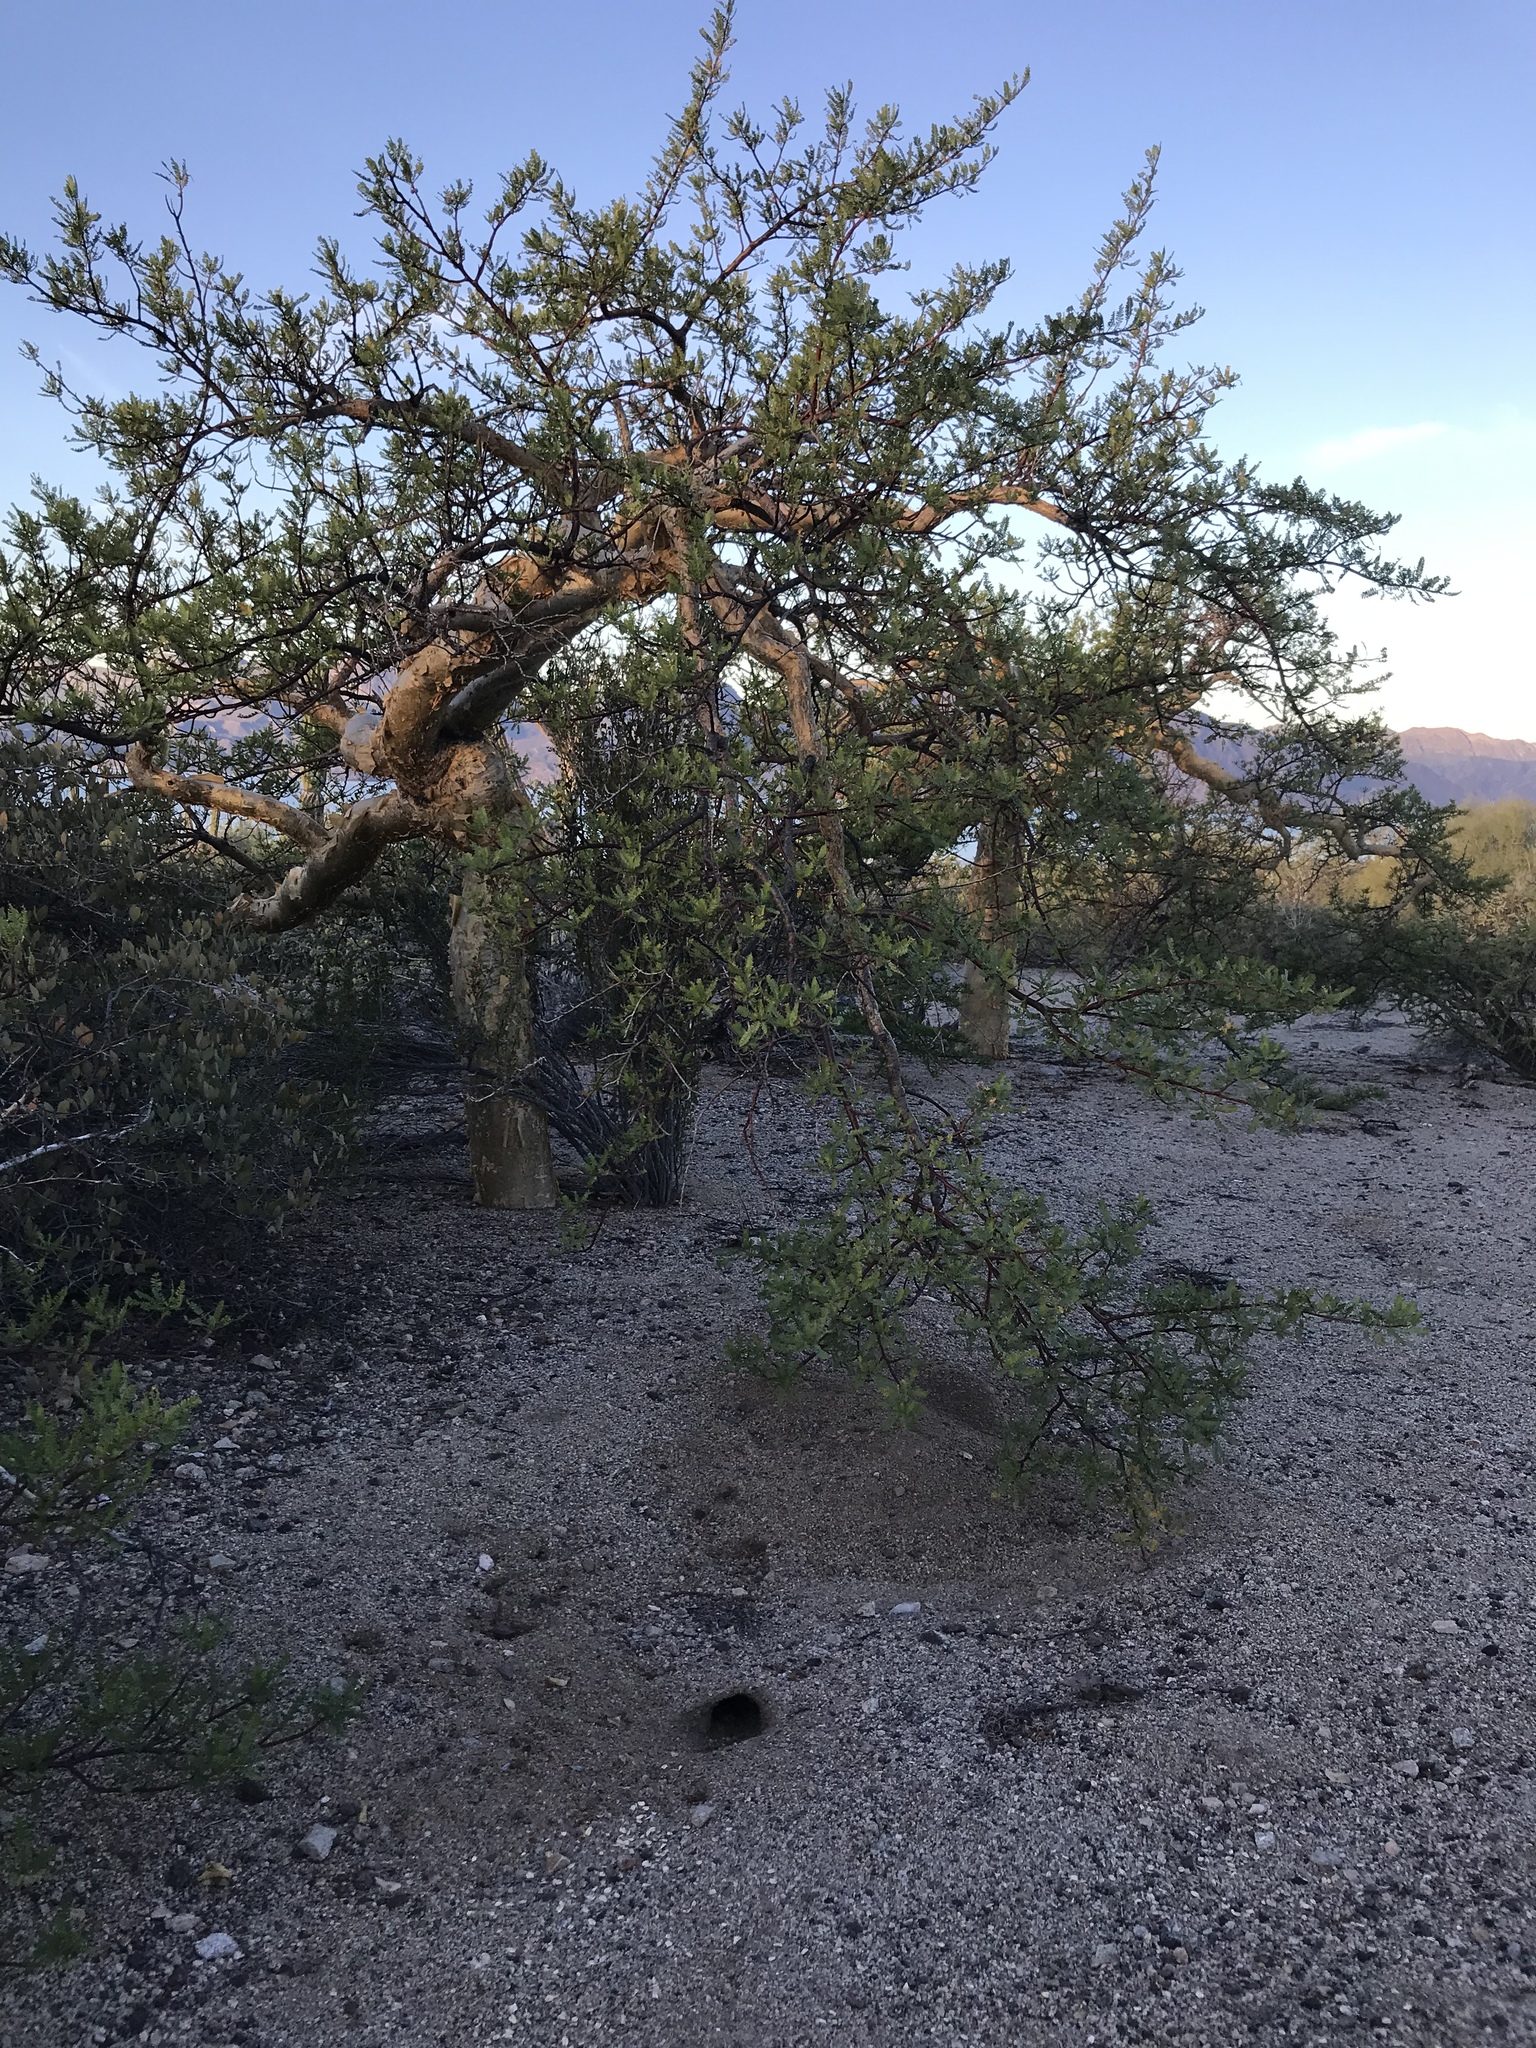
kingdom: Plantae
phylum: Tracheophyta
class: Magnoliopsida
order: Sapindales
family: Burseraceae
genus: Bursera
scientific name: Bursera microphylla
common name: Elephant tree
